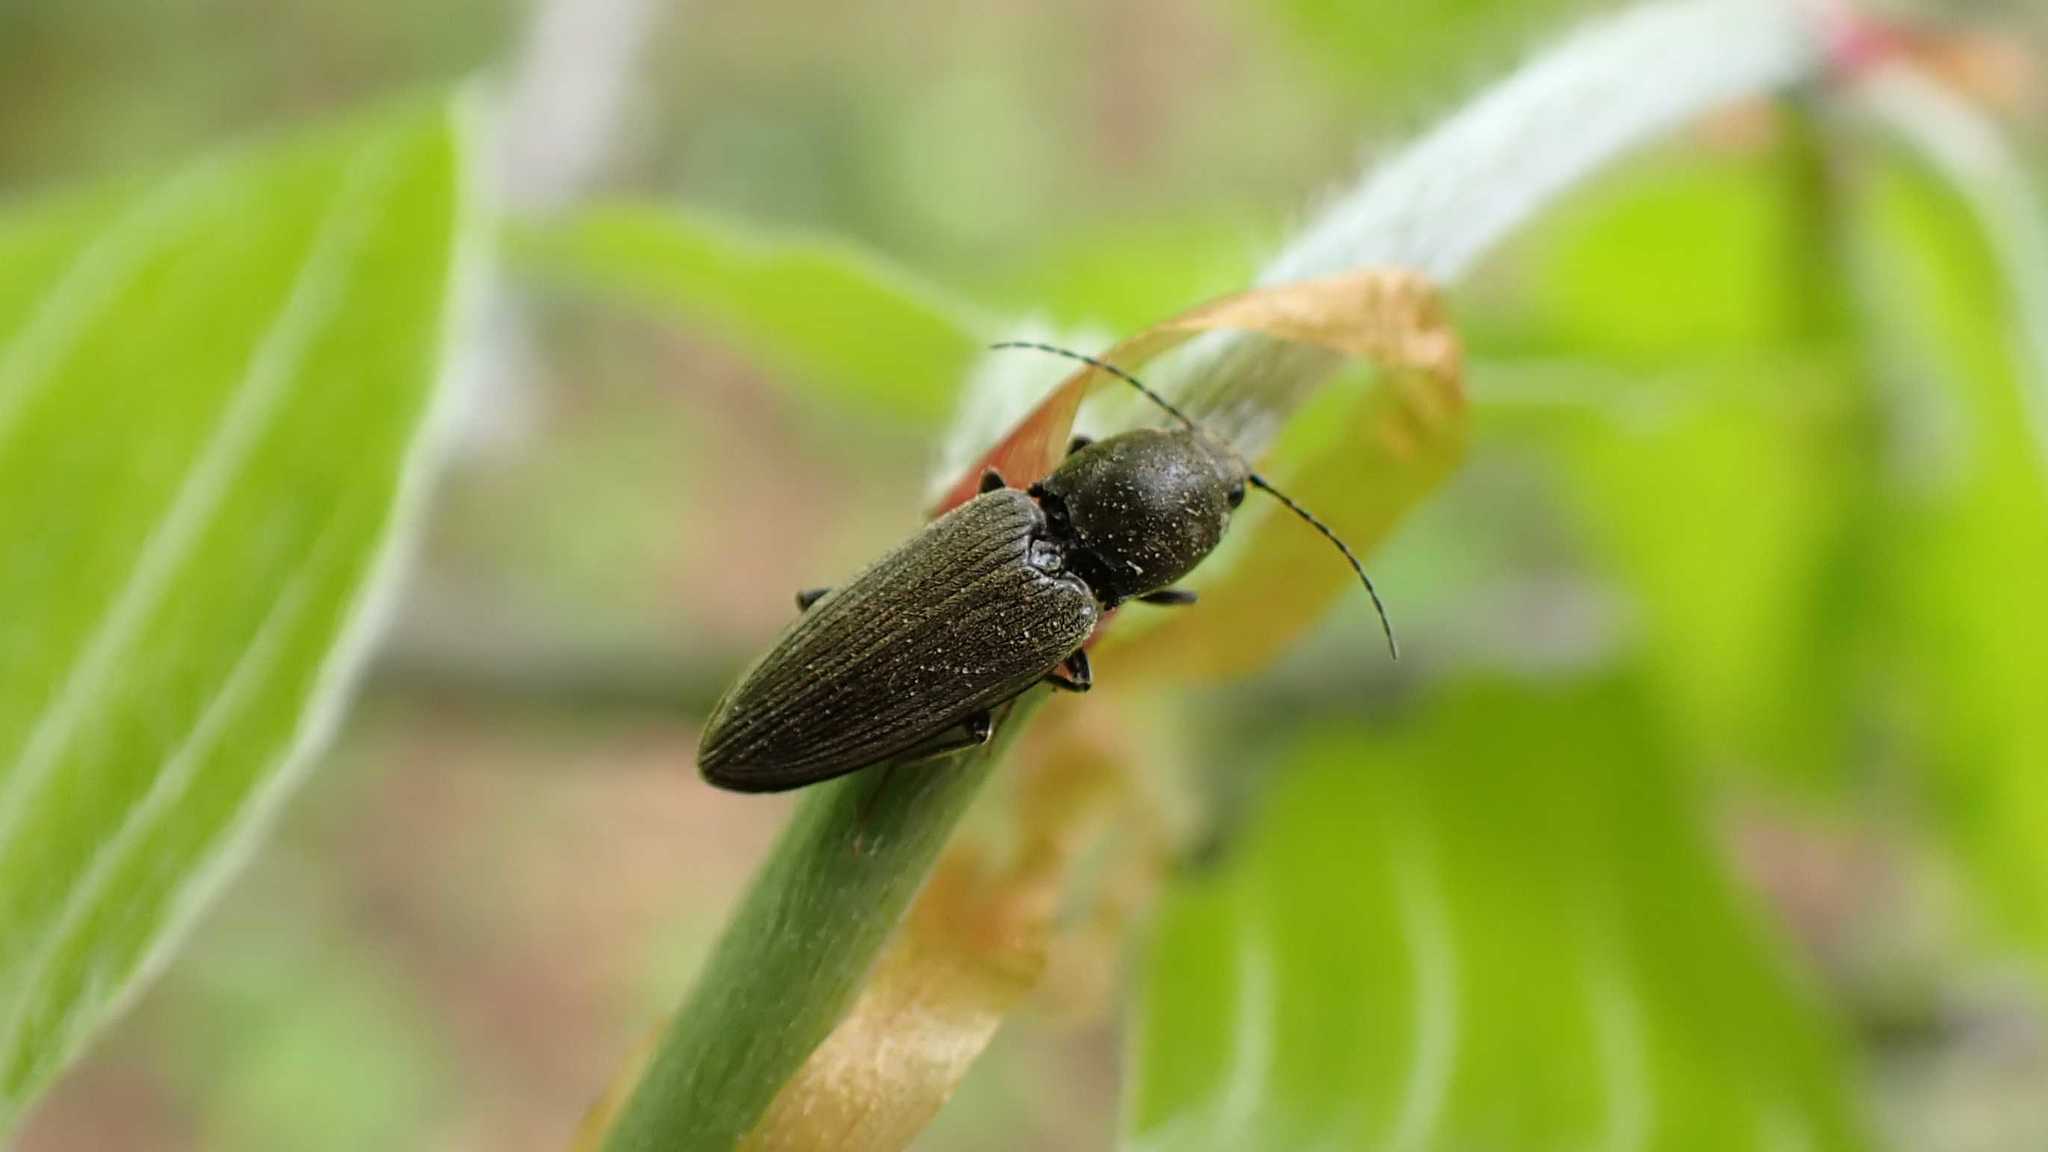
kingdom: Animalia
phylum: Arthropoda
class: Insecta
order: Coleoptera
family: Elateridae
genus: Dicronychus
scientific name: Dicronychus
